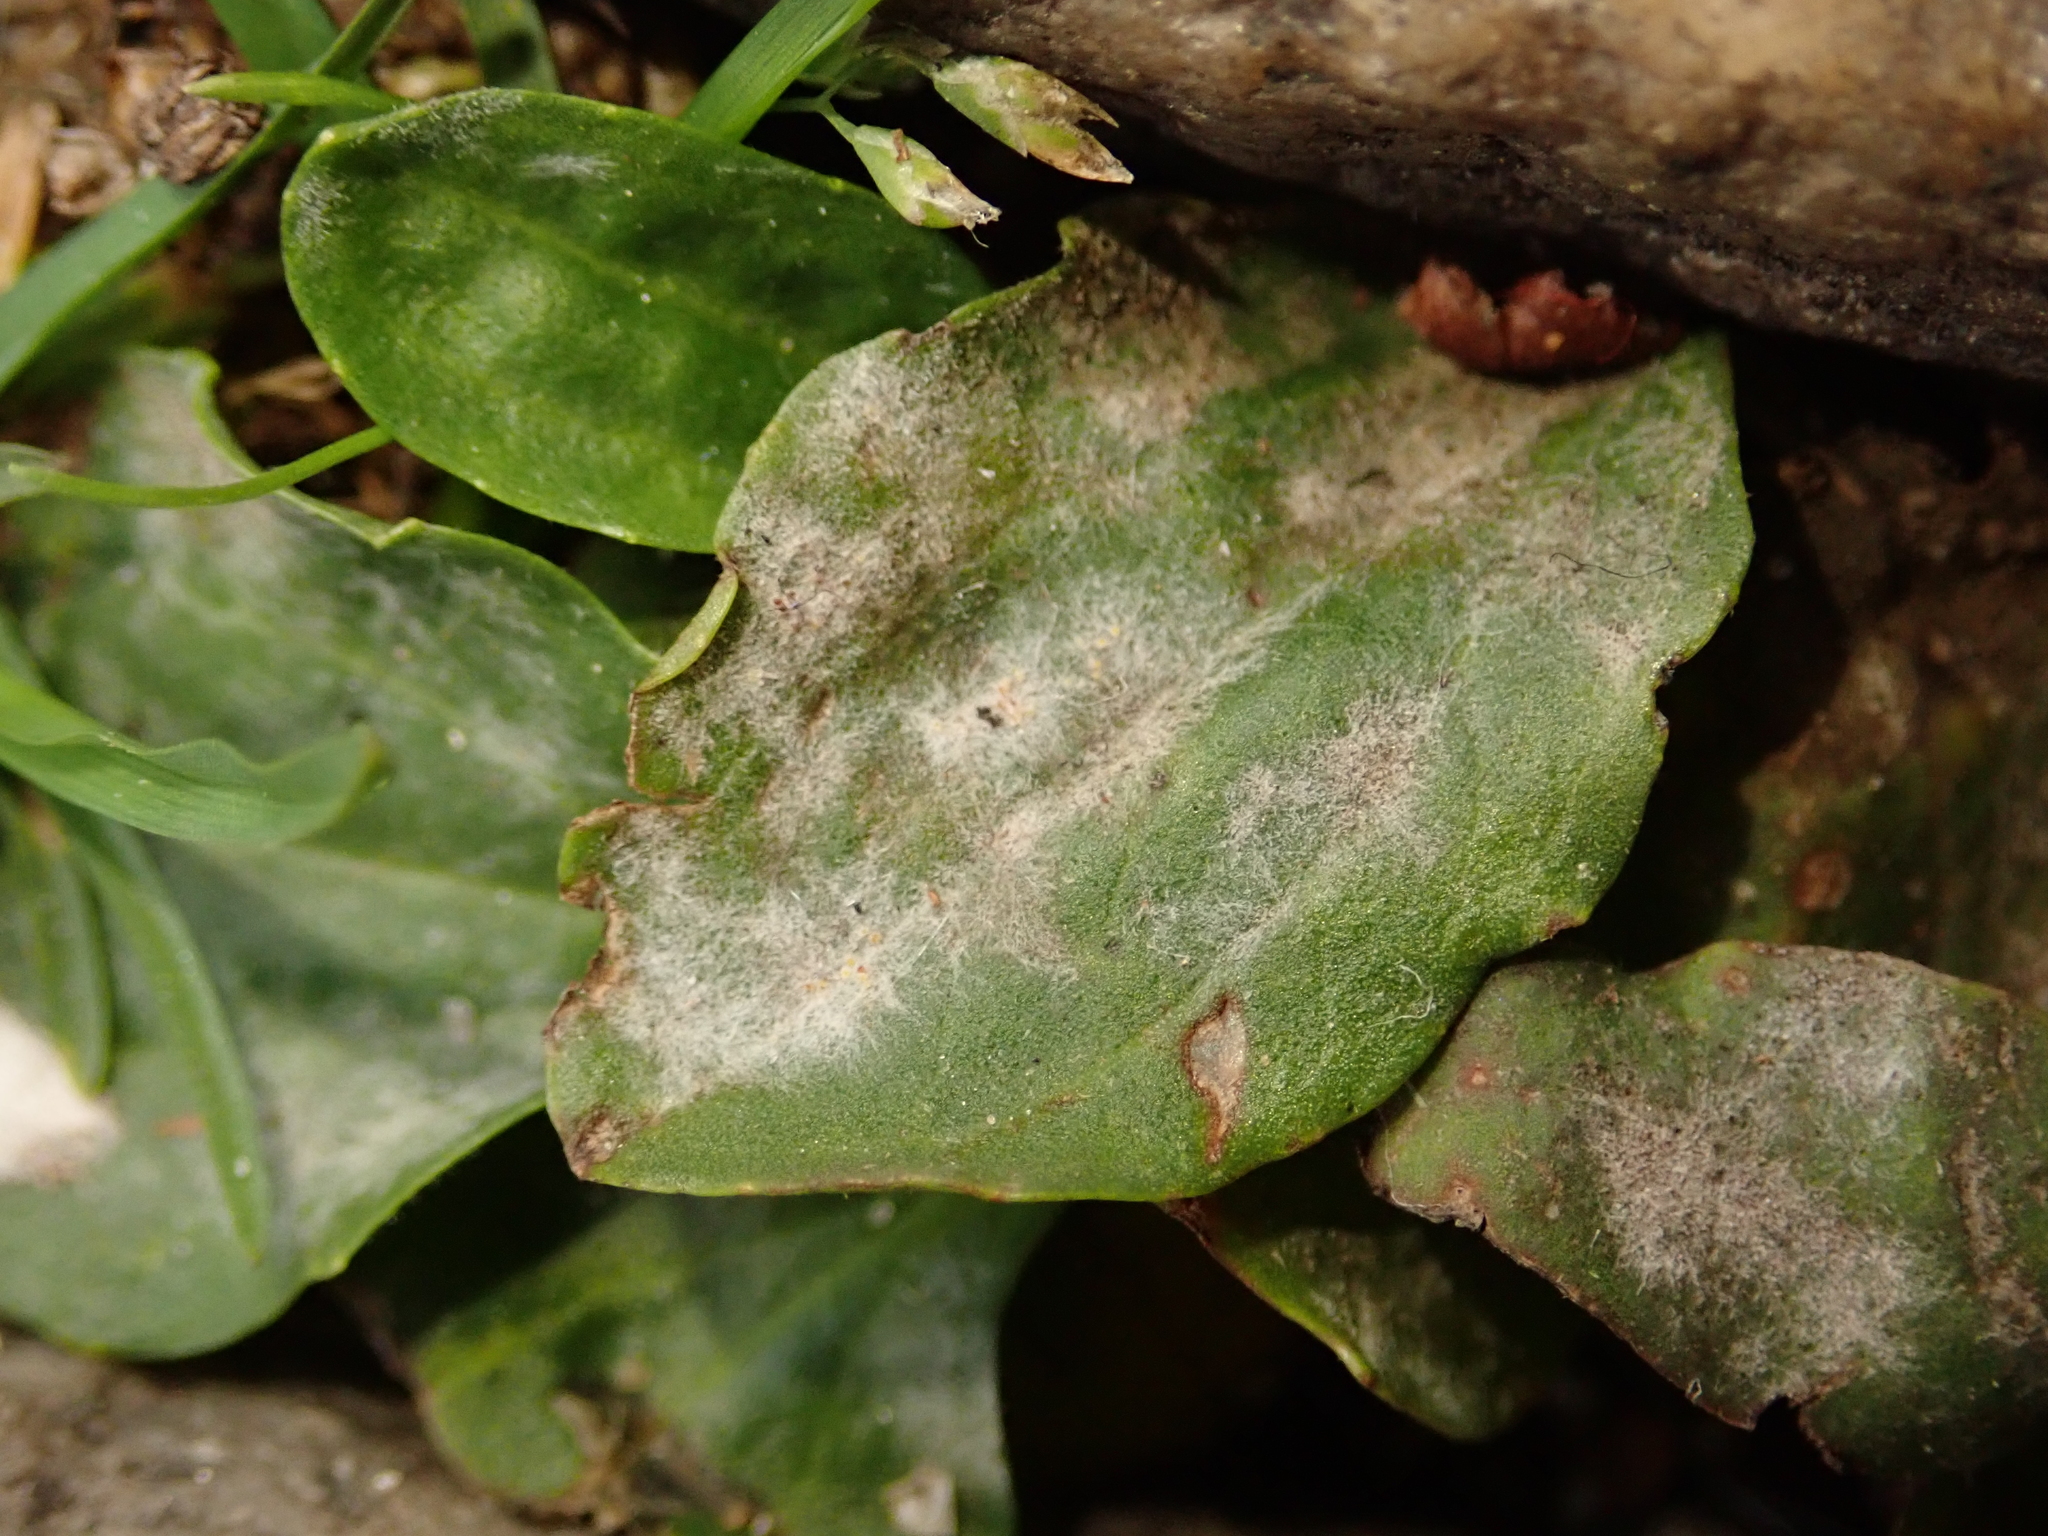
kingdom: Fungi
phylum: Ascomycota
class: Leotiomycetes
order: Helotiales
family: Erysiphaceae
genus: Podosphaera
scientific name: Podosphaera plantaginis
